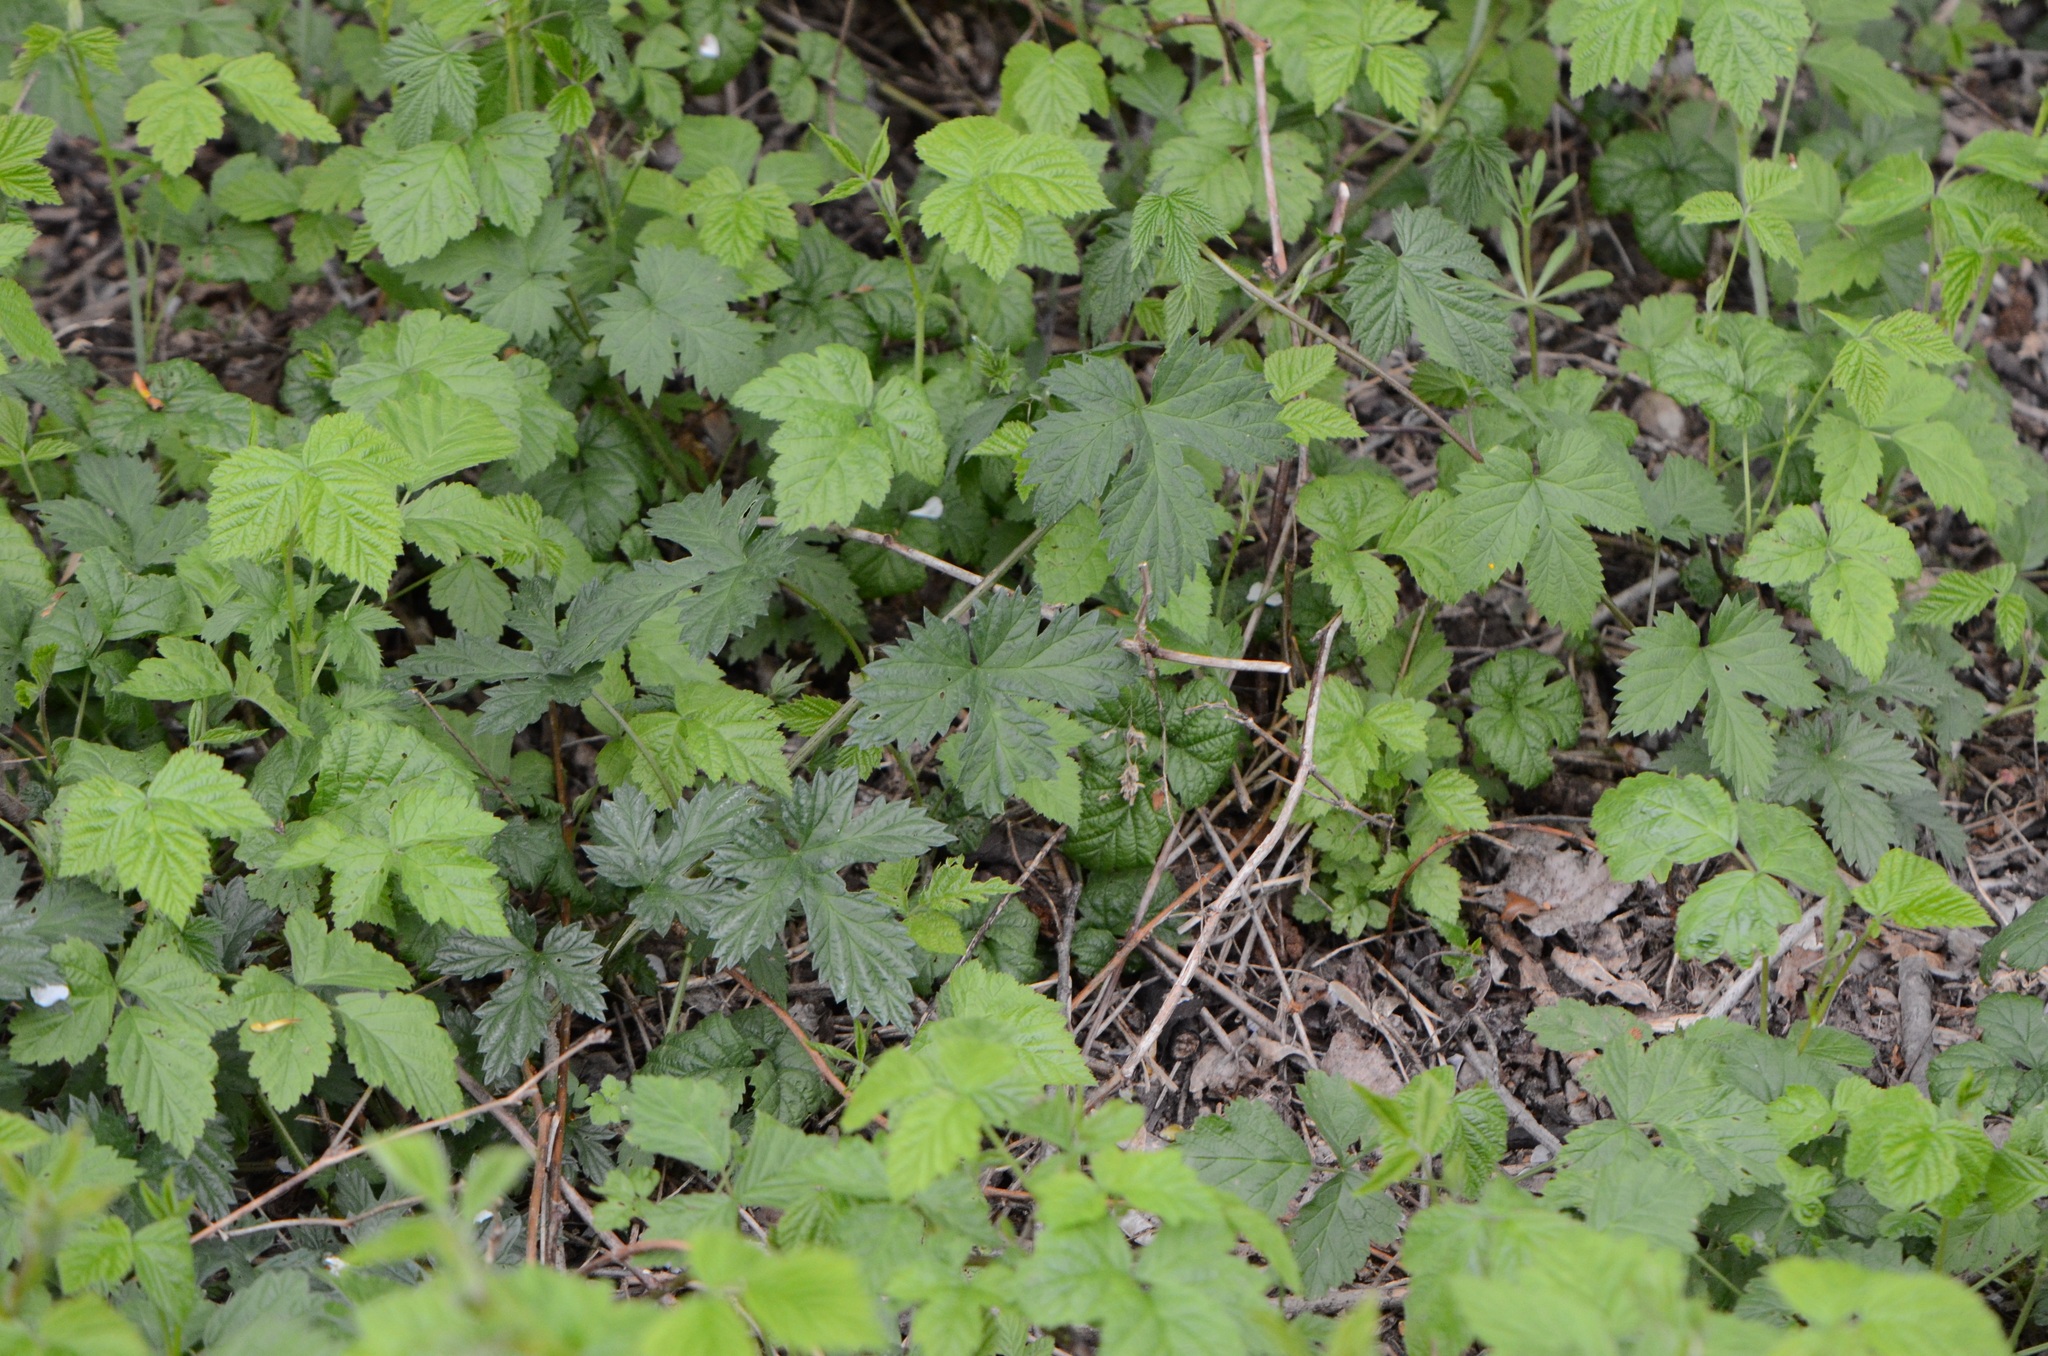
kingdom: Plantae
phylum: Tracheophyta
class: Magnoliopsida
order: Rosales
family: Cannabaceae
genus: Humulus
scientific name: Humulus lupulus
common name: Hop
